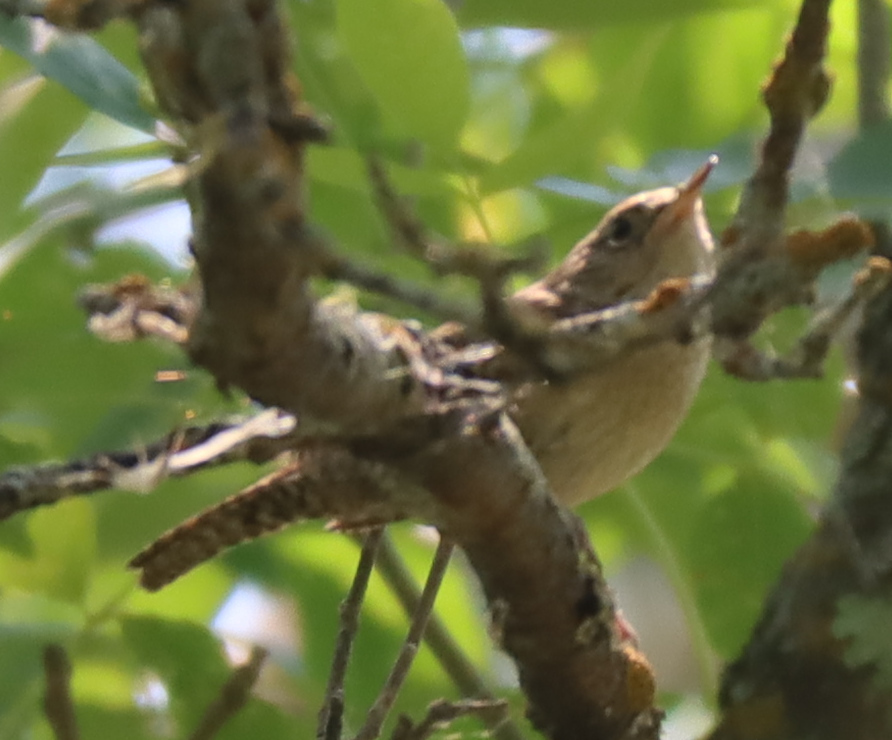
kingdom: Animalia
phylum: Chordata
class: Aves
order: Passeriformes
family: Troglodytidae
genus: Troglodytes
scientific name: Troglodytes aedon
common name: House wren
